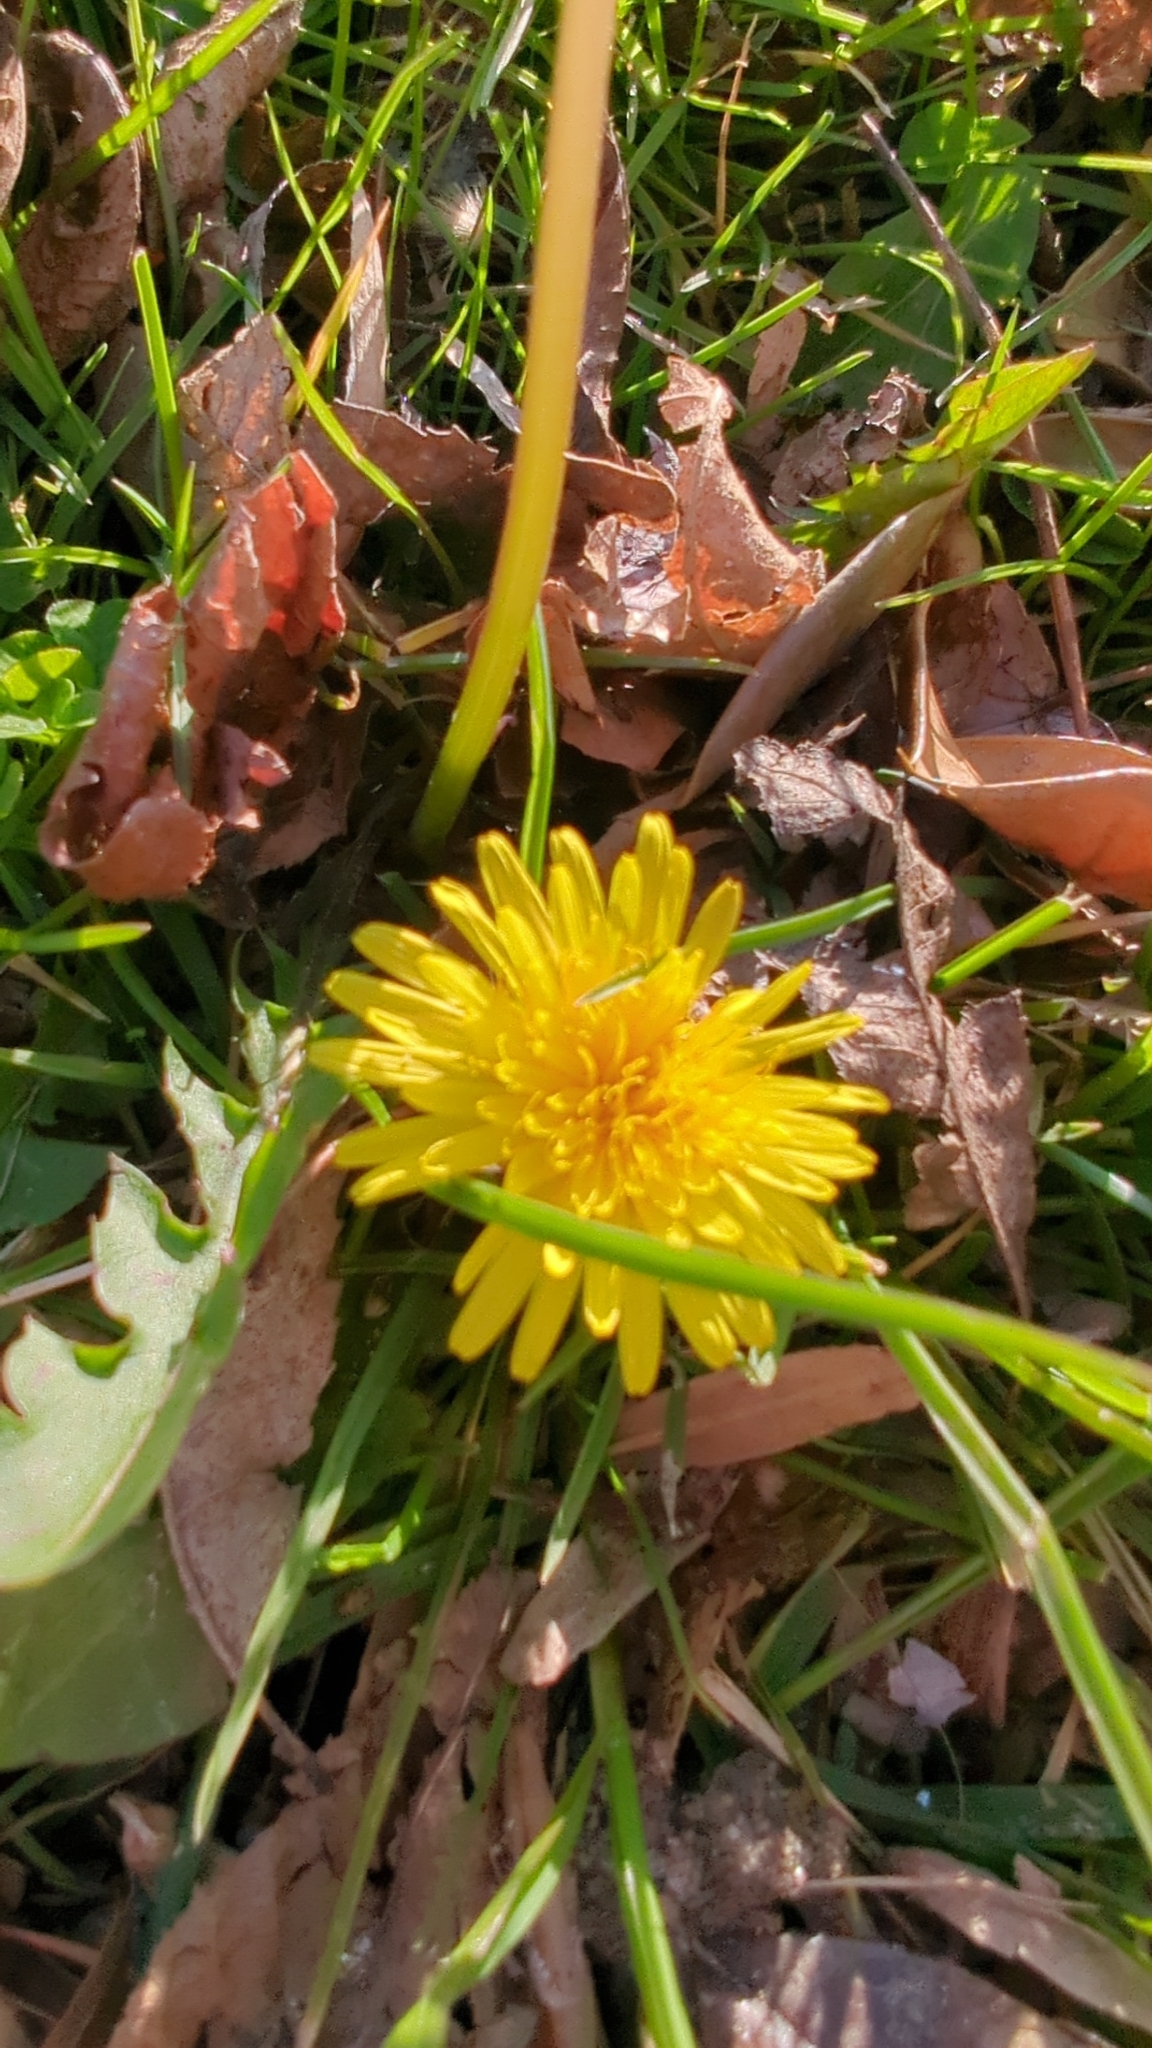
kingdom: Plantae
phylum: Tracheophyta
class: Magnoliopsida
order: Asterales
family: Asteraceae
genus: Taraxacum
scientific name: Taraxacum officinale
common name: Common dandelion
